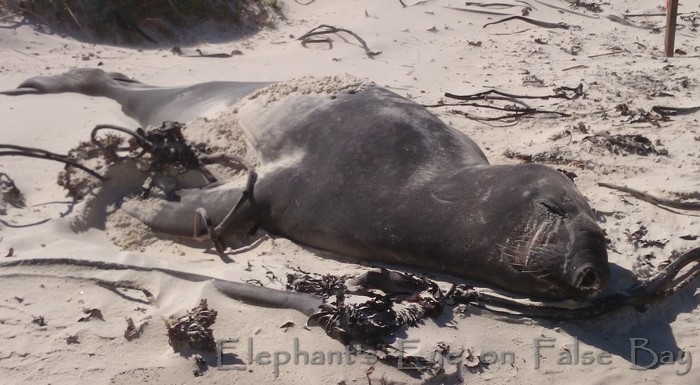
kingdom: Animalia
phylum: Chordata
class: Mammalia
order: Carnivora
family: Phocidae
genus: Mirounga
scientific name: Mirounga leonina
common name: Southern elephant seal
